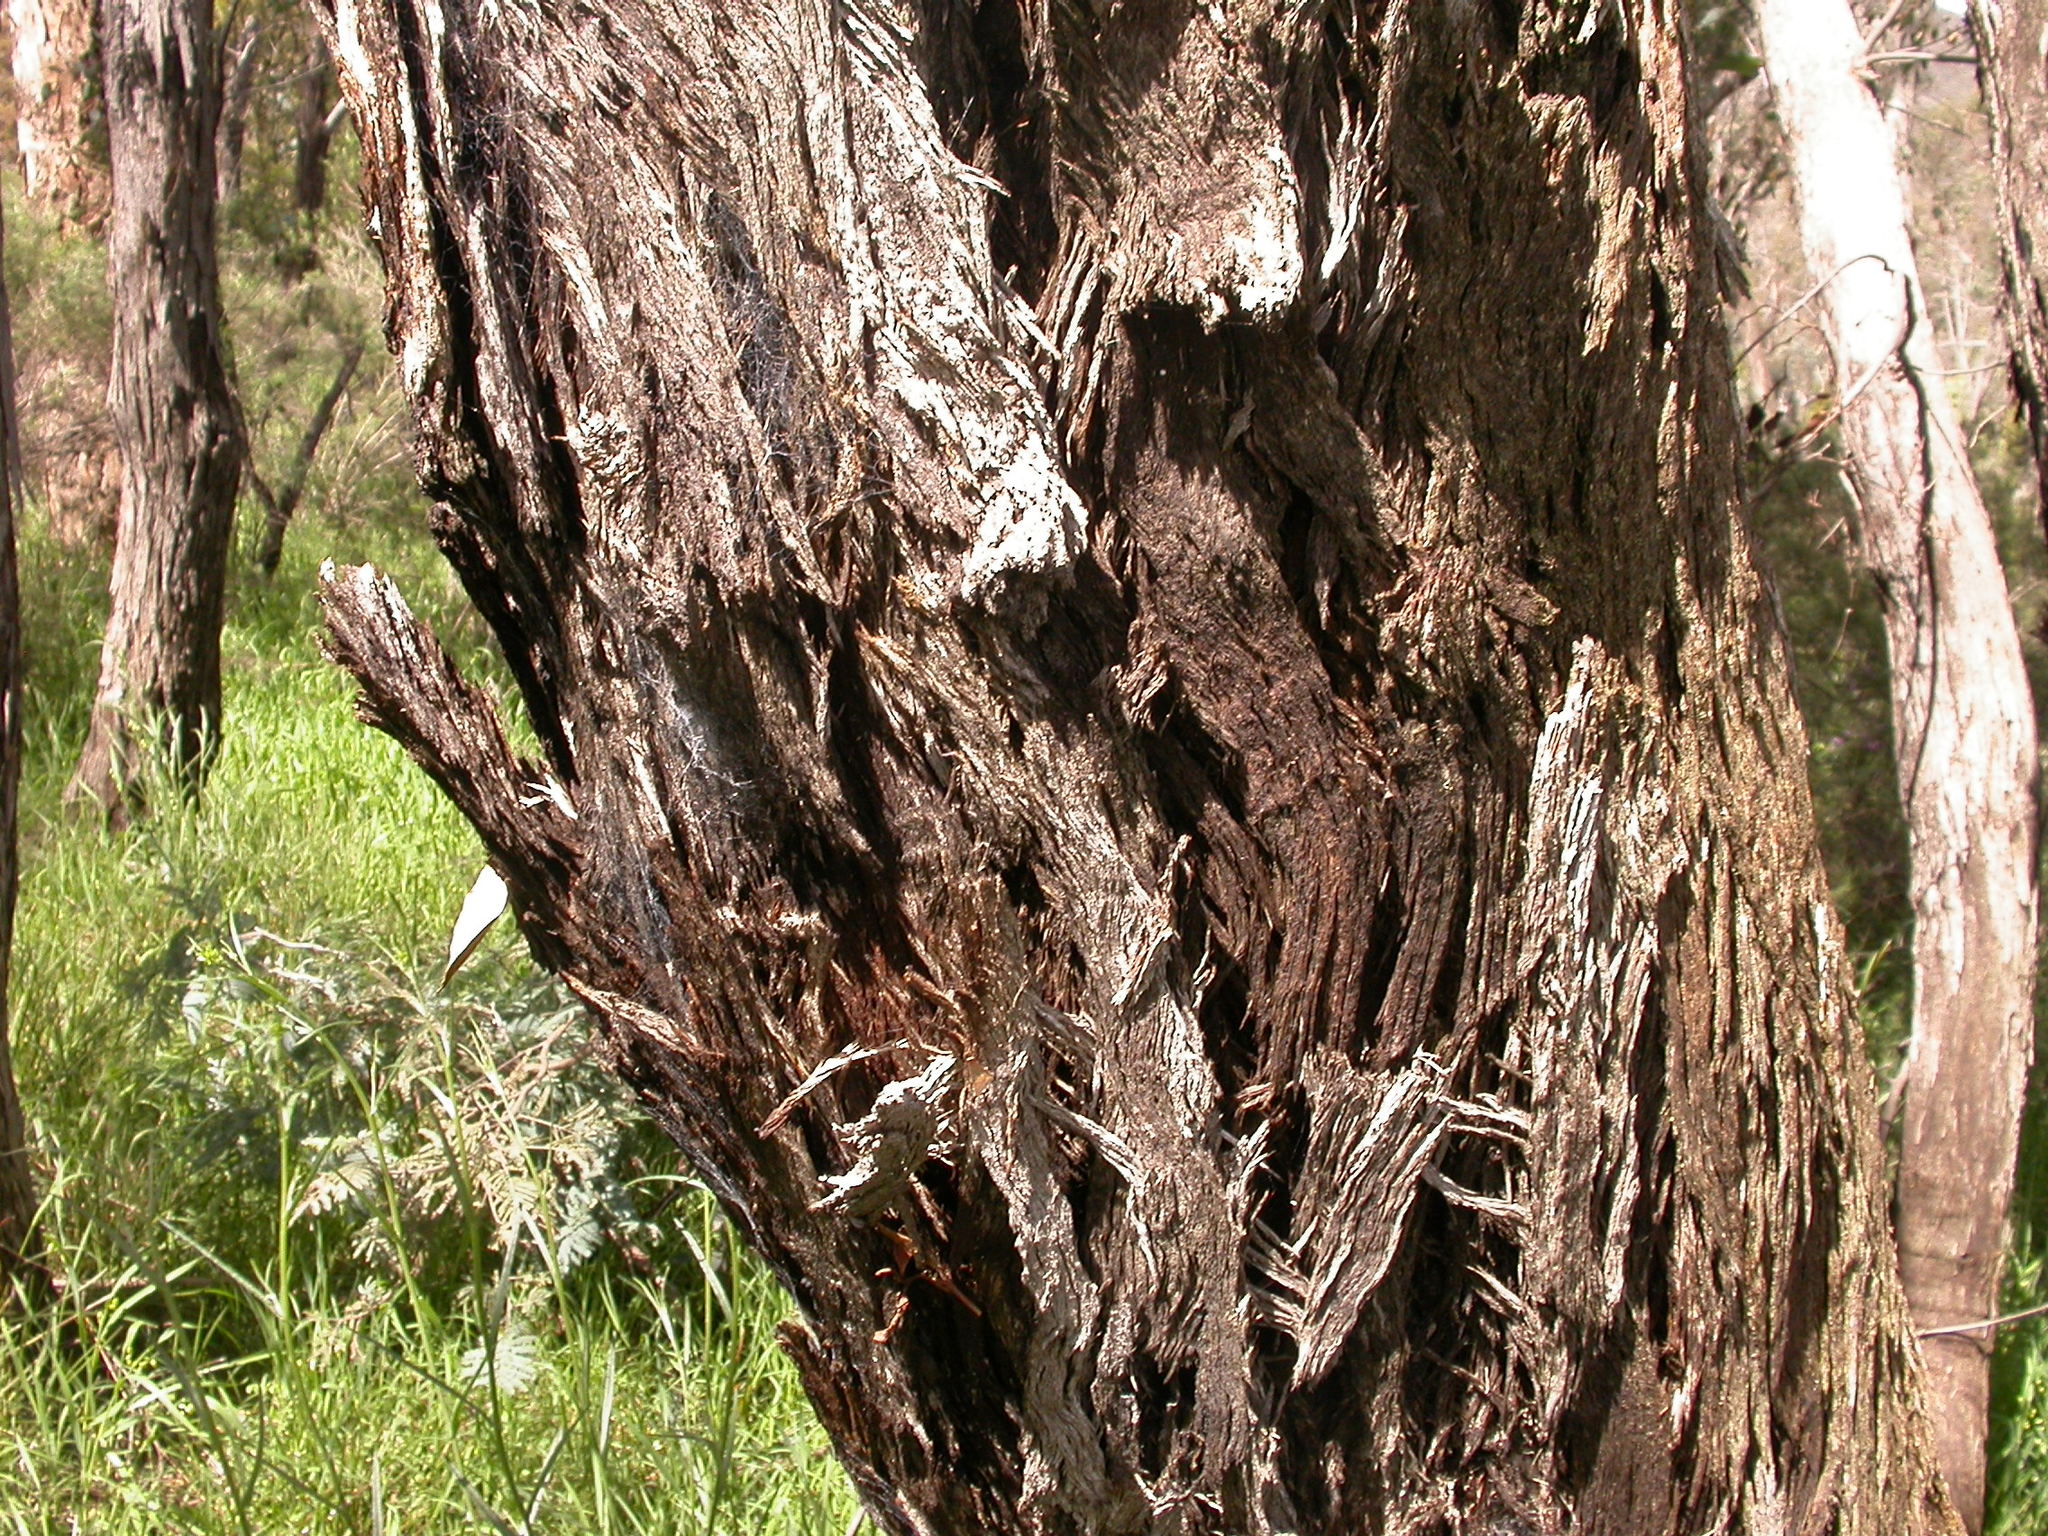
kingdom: Plantae
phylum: Tracheophyta
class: Magnoliopsida
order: Myrtales
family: Myrtaceae
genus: Eucalyptus
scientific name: Eucalyptus
